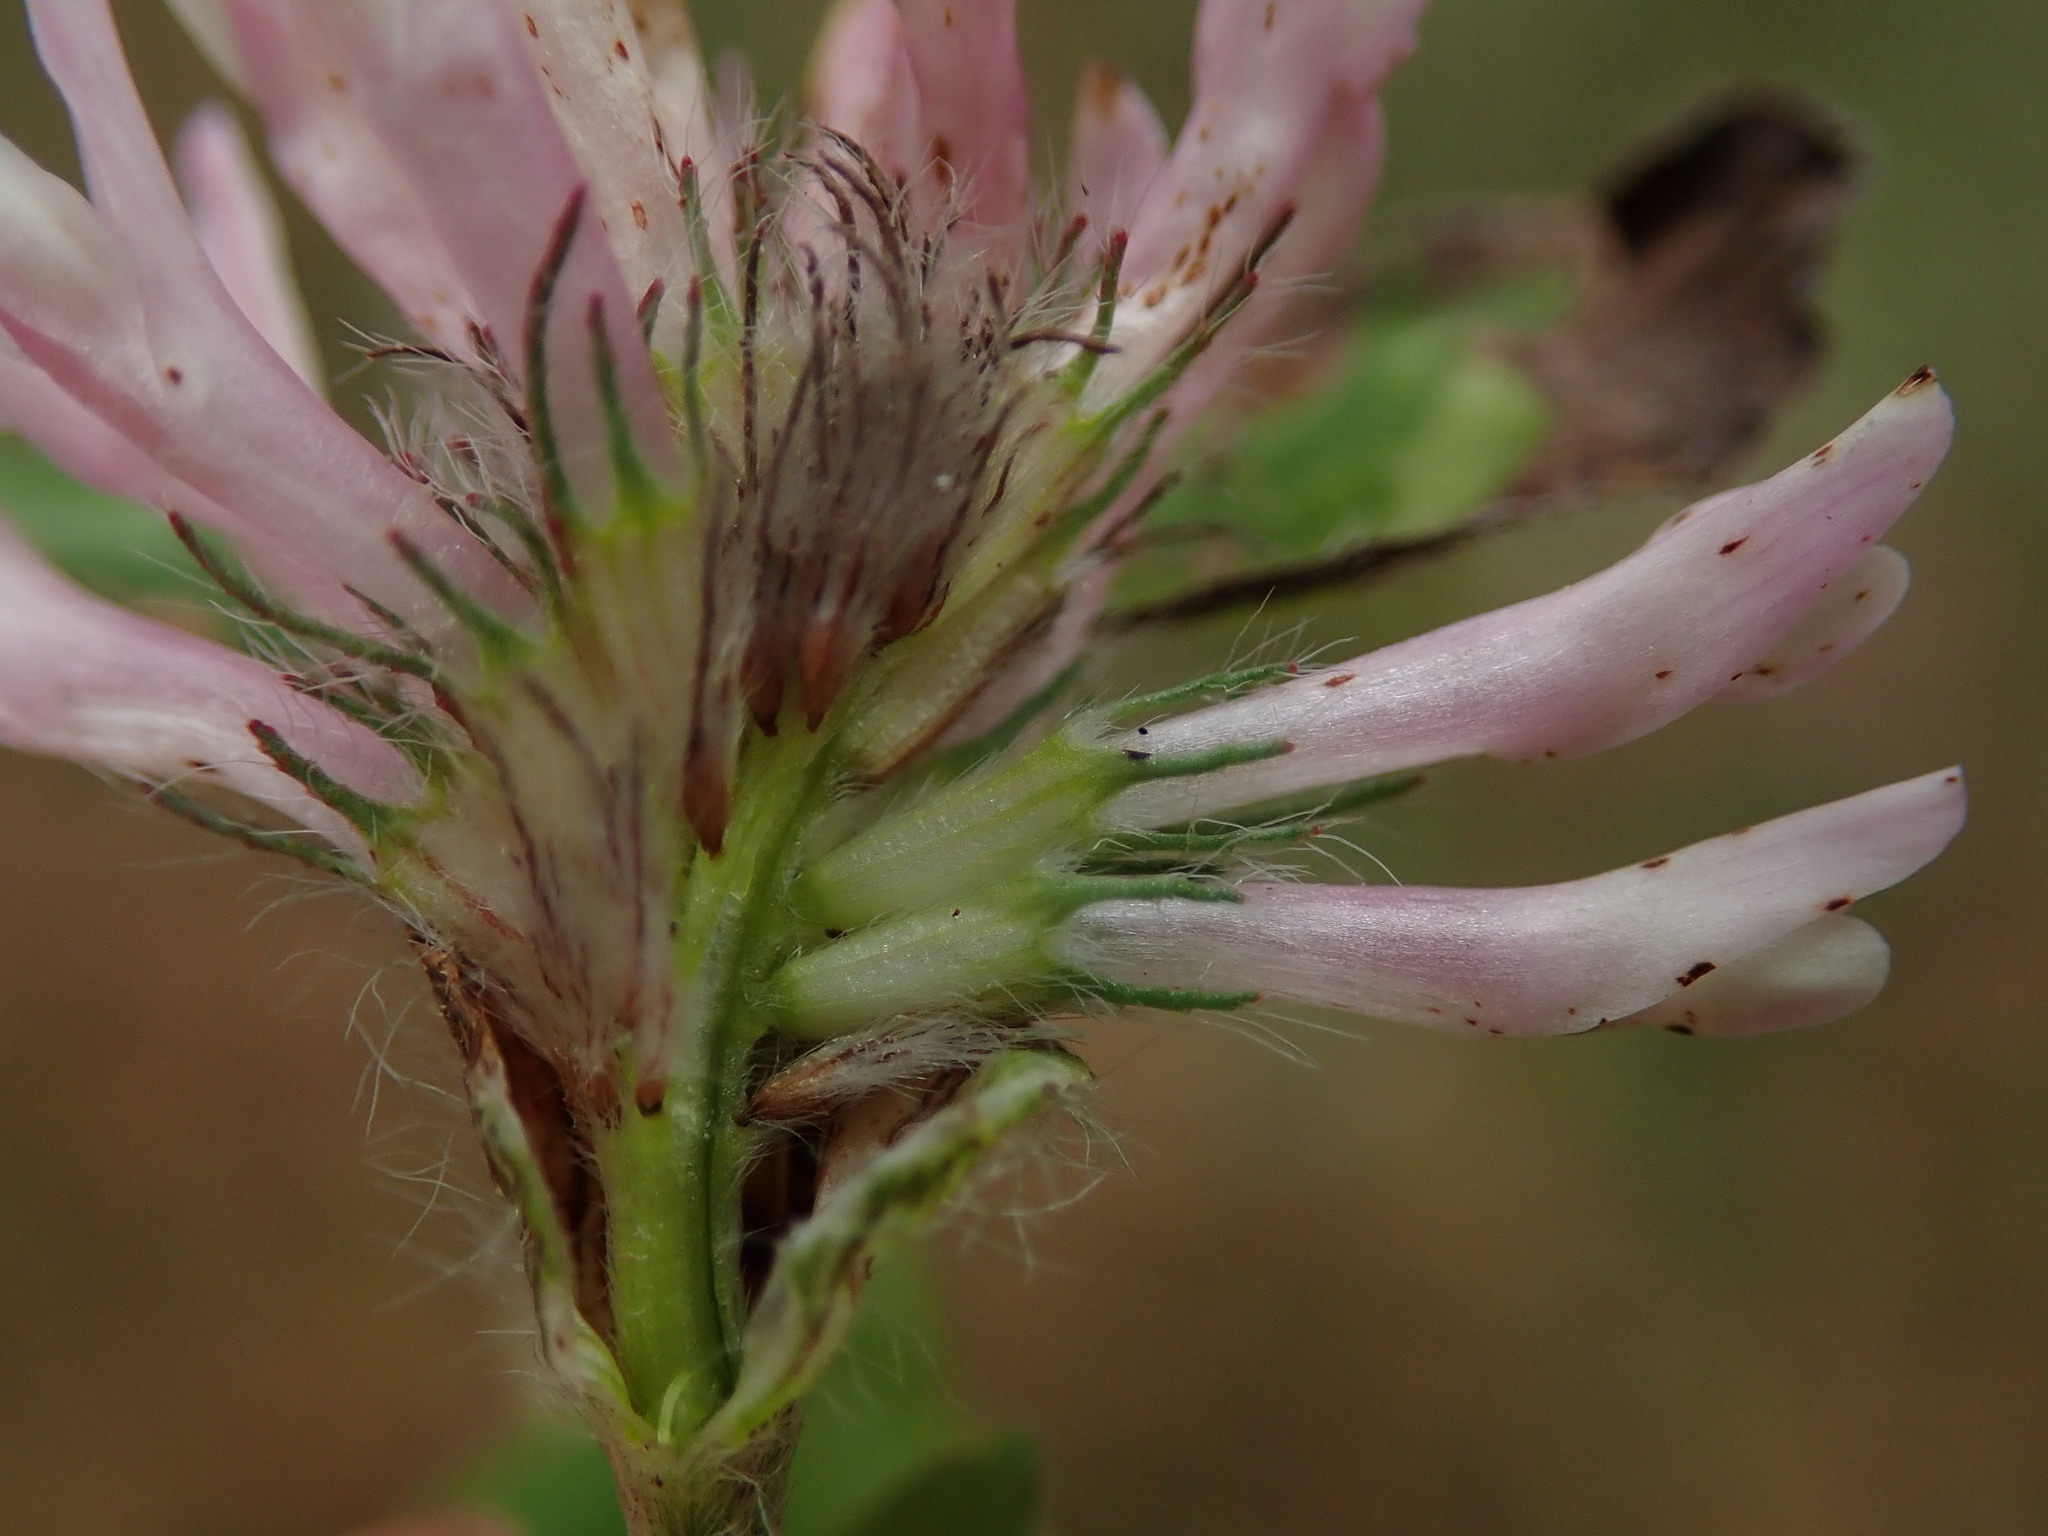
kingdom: Plantae
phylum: Tracheophyta
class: Magnoliopsida
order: Fabales
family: Fabaceae
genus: Trifolium
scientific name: Trifolium pratense
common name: Red clover
